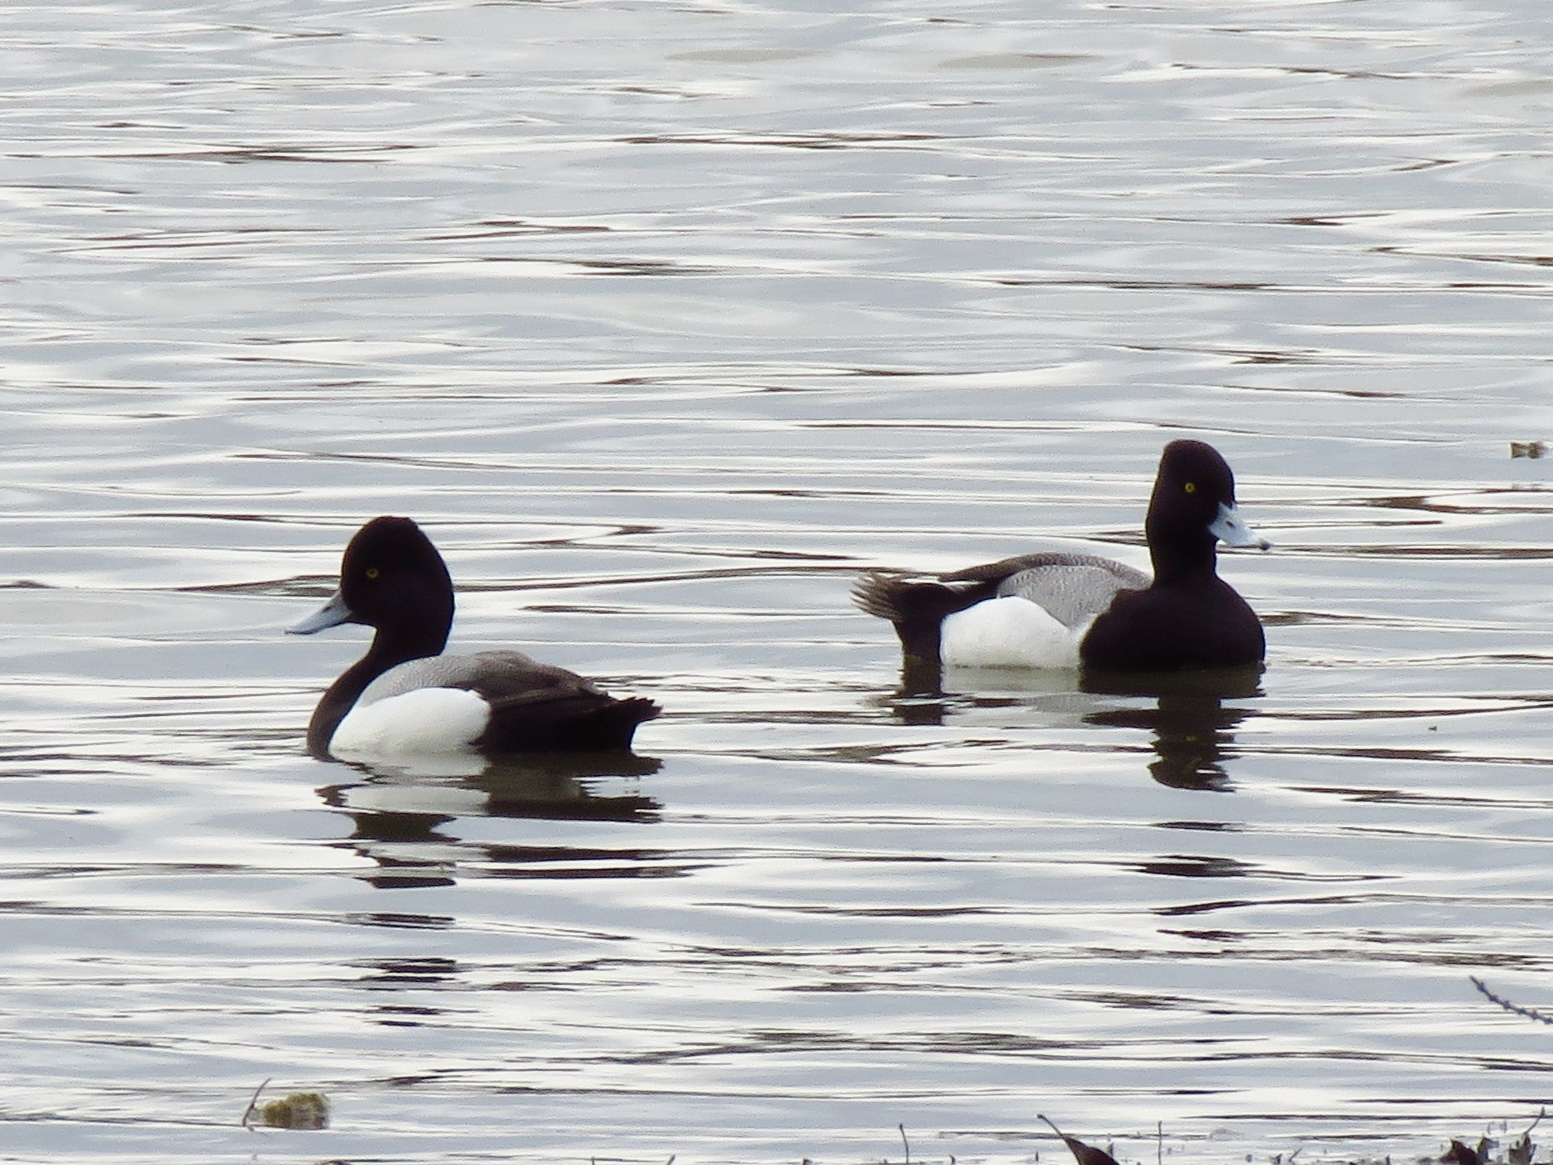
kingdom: Animalia
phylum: Chordata
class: Aves
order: Anseriformes
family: Anatidae
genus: Aythya
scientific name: Aythya affinis
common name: Lesser scaup
